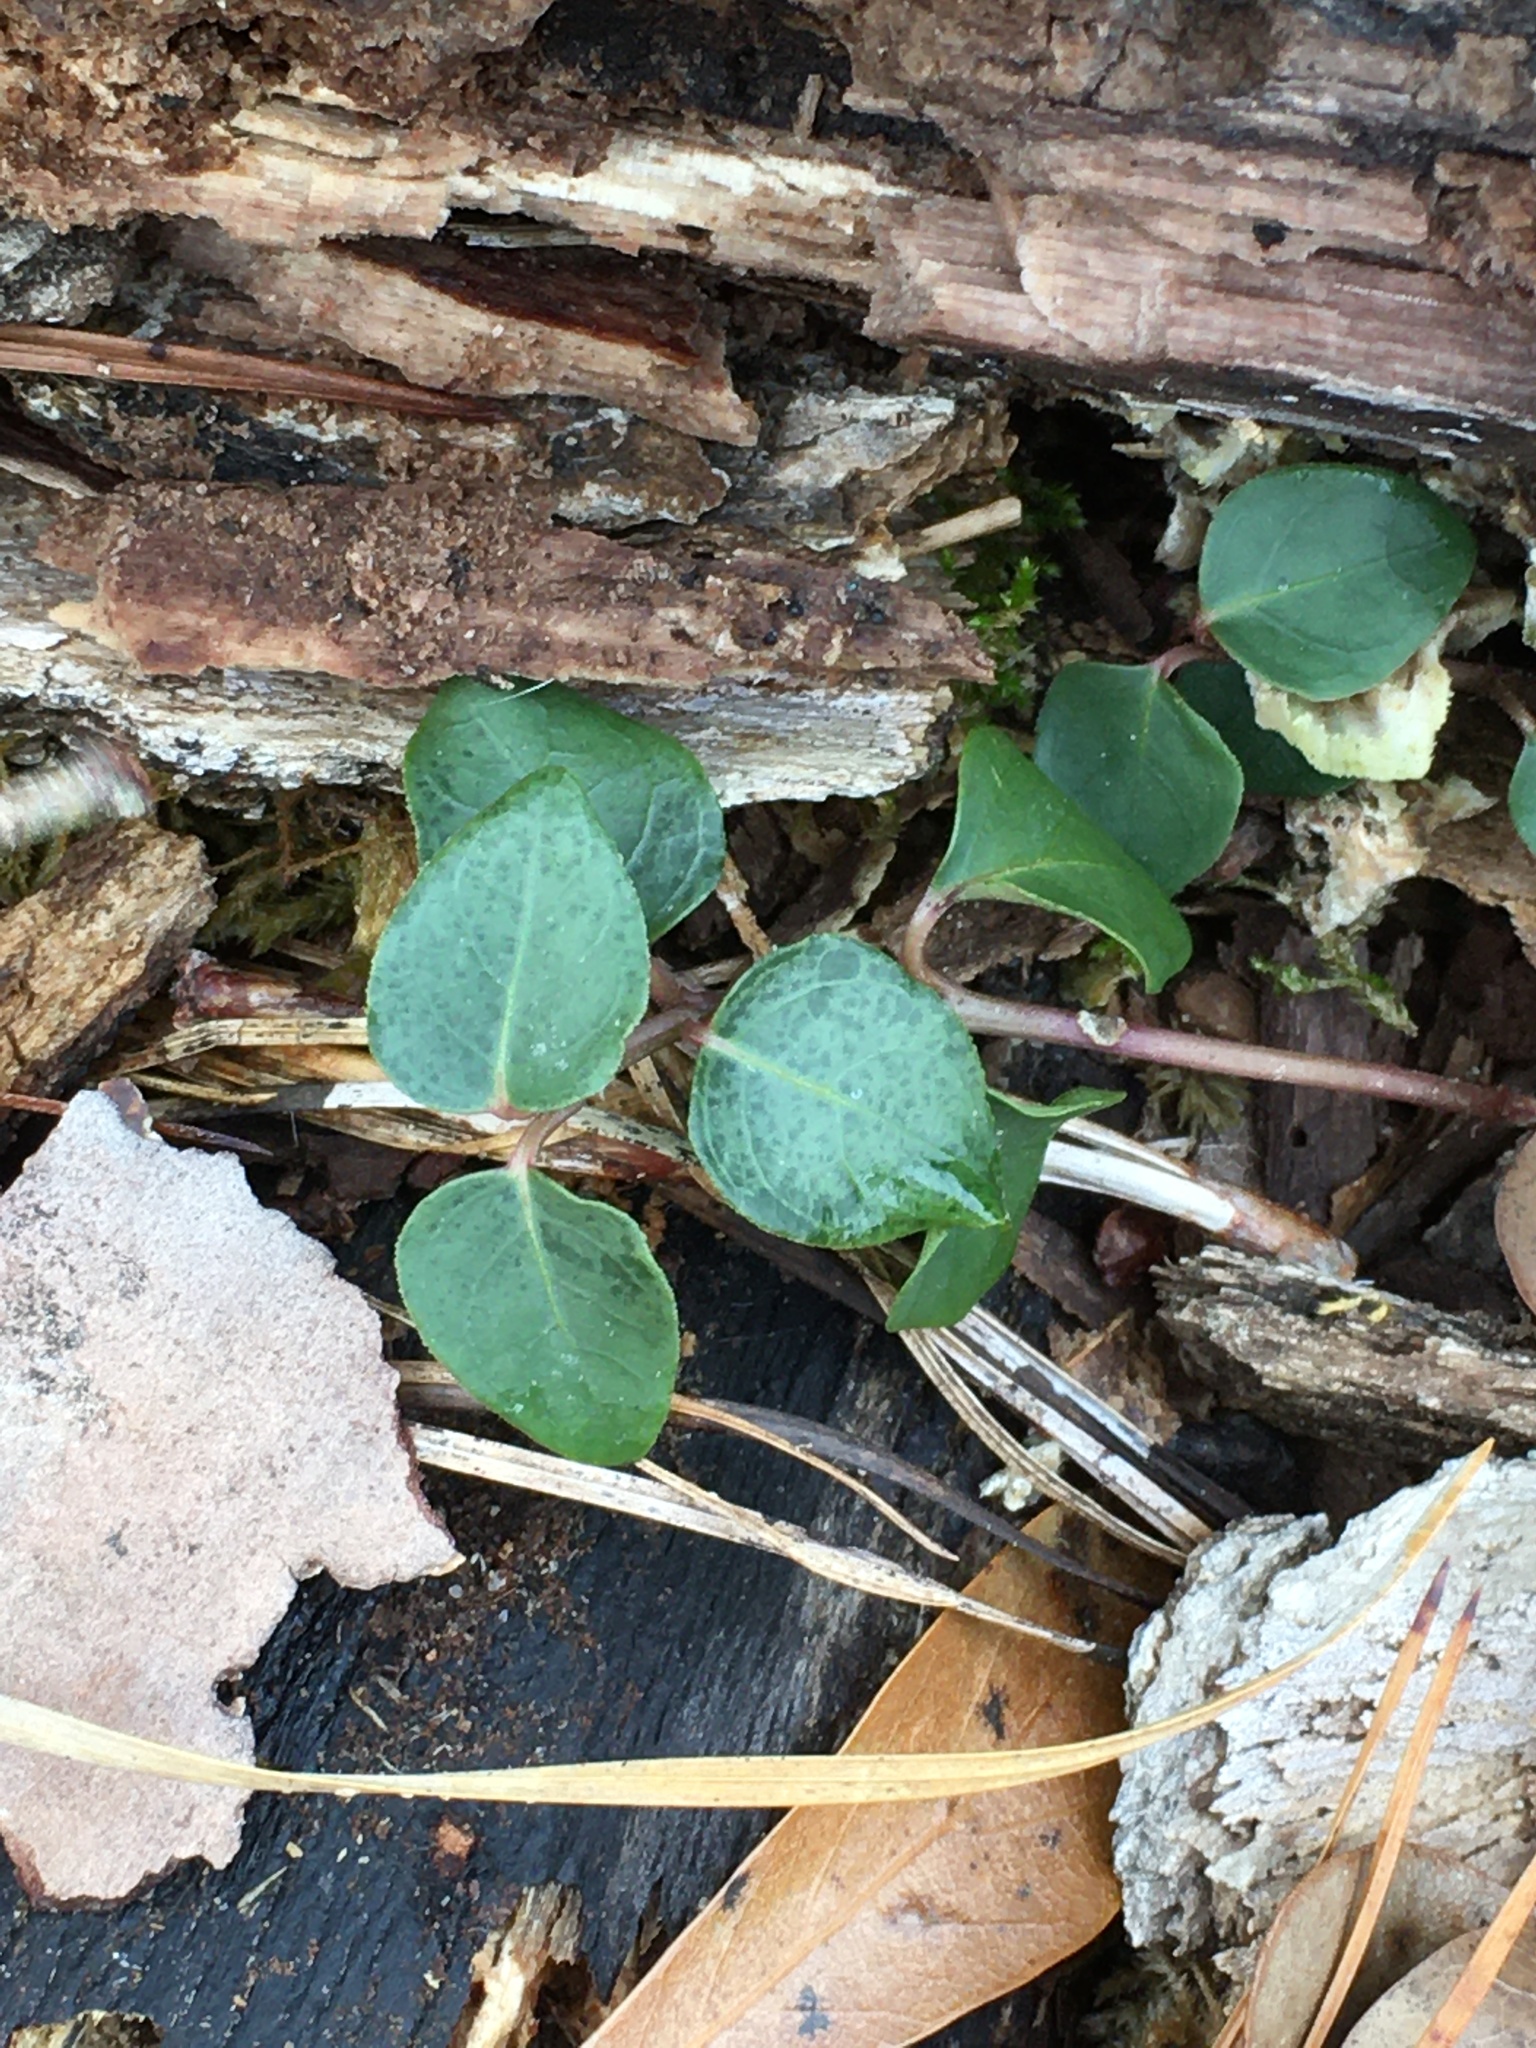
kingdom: Plantae
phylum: Tracheophyta
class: Magnoliopsida
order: Gentianales
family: Rubiaceae
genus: Mitchella
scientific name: Mitchella repens
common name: Partridge-berry
